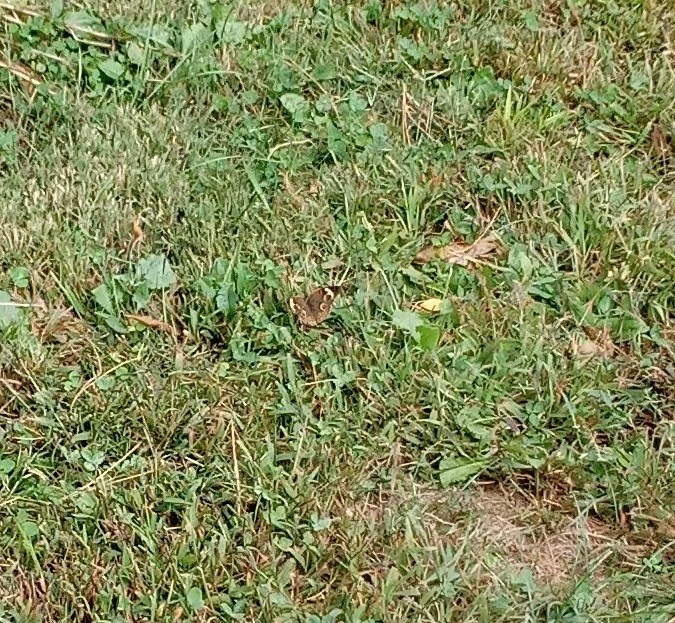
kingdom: Animalia
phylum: Arthropoda
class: Insecta
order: Lepidoptera
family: Nymphalidae
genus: Junonia
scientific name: Junonia coenia
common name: Common buckeye
